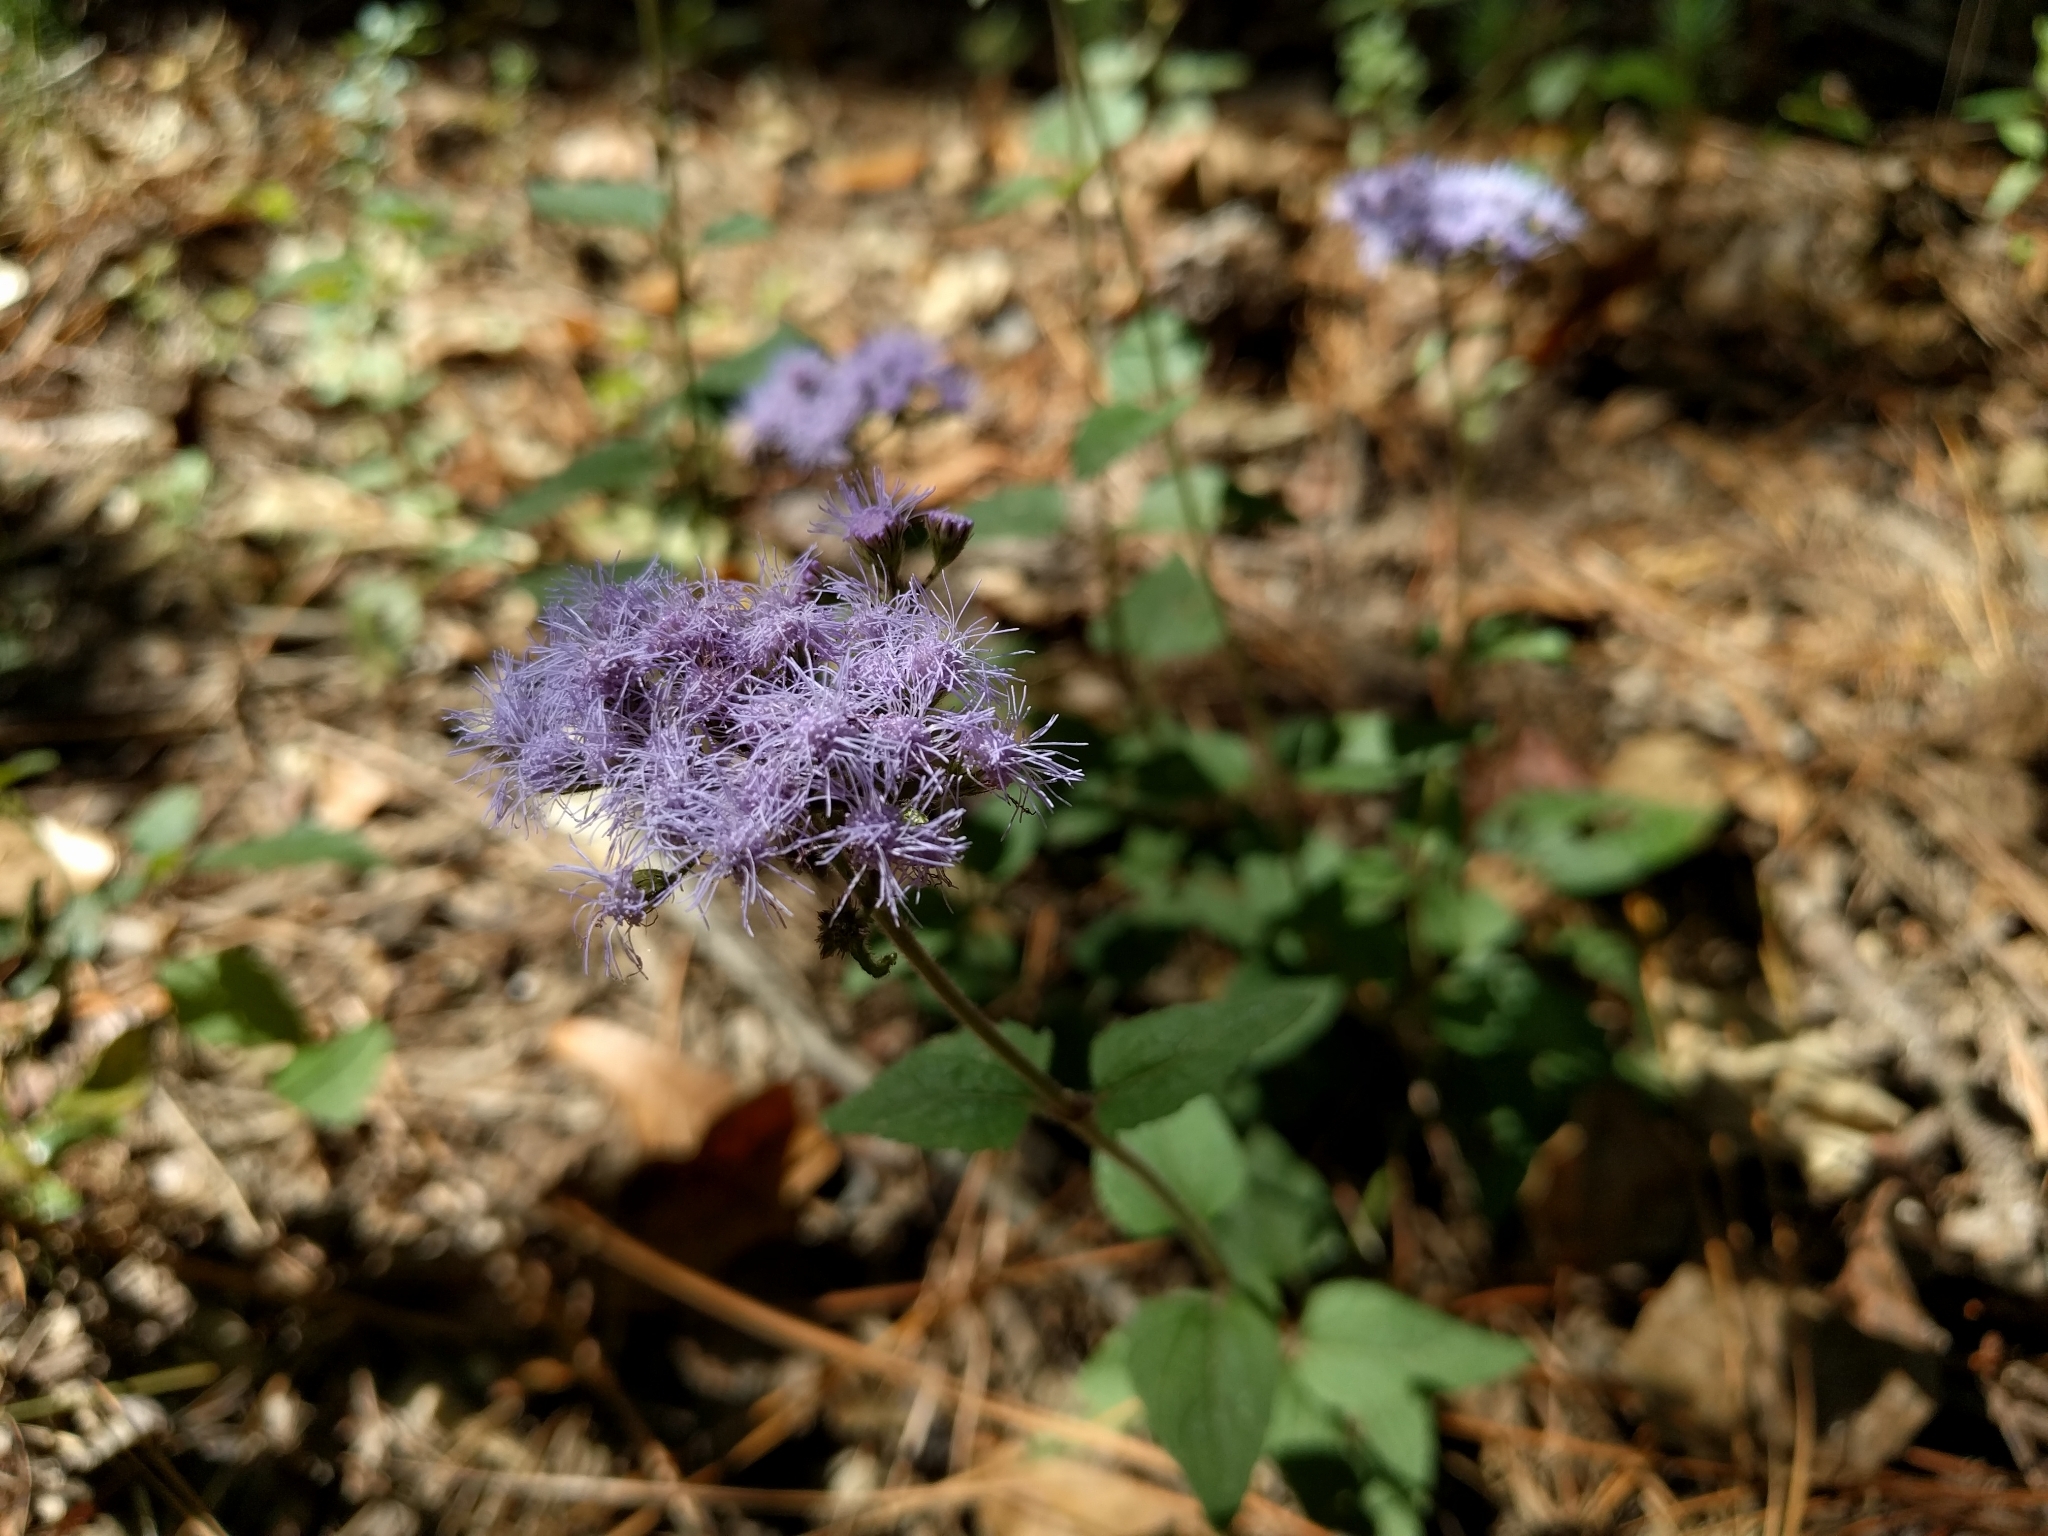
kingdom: Plantae
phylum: Tracheophyta
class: Magnoliopsida
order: Asterales
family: Asteraceae
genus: Conoclinium
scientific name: Conoclinium coelestinum
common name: Blue mistflower
